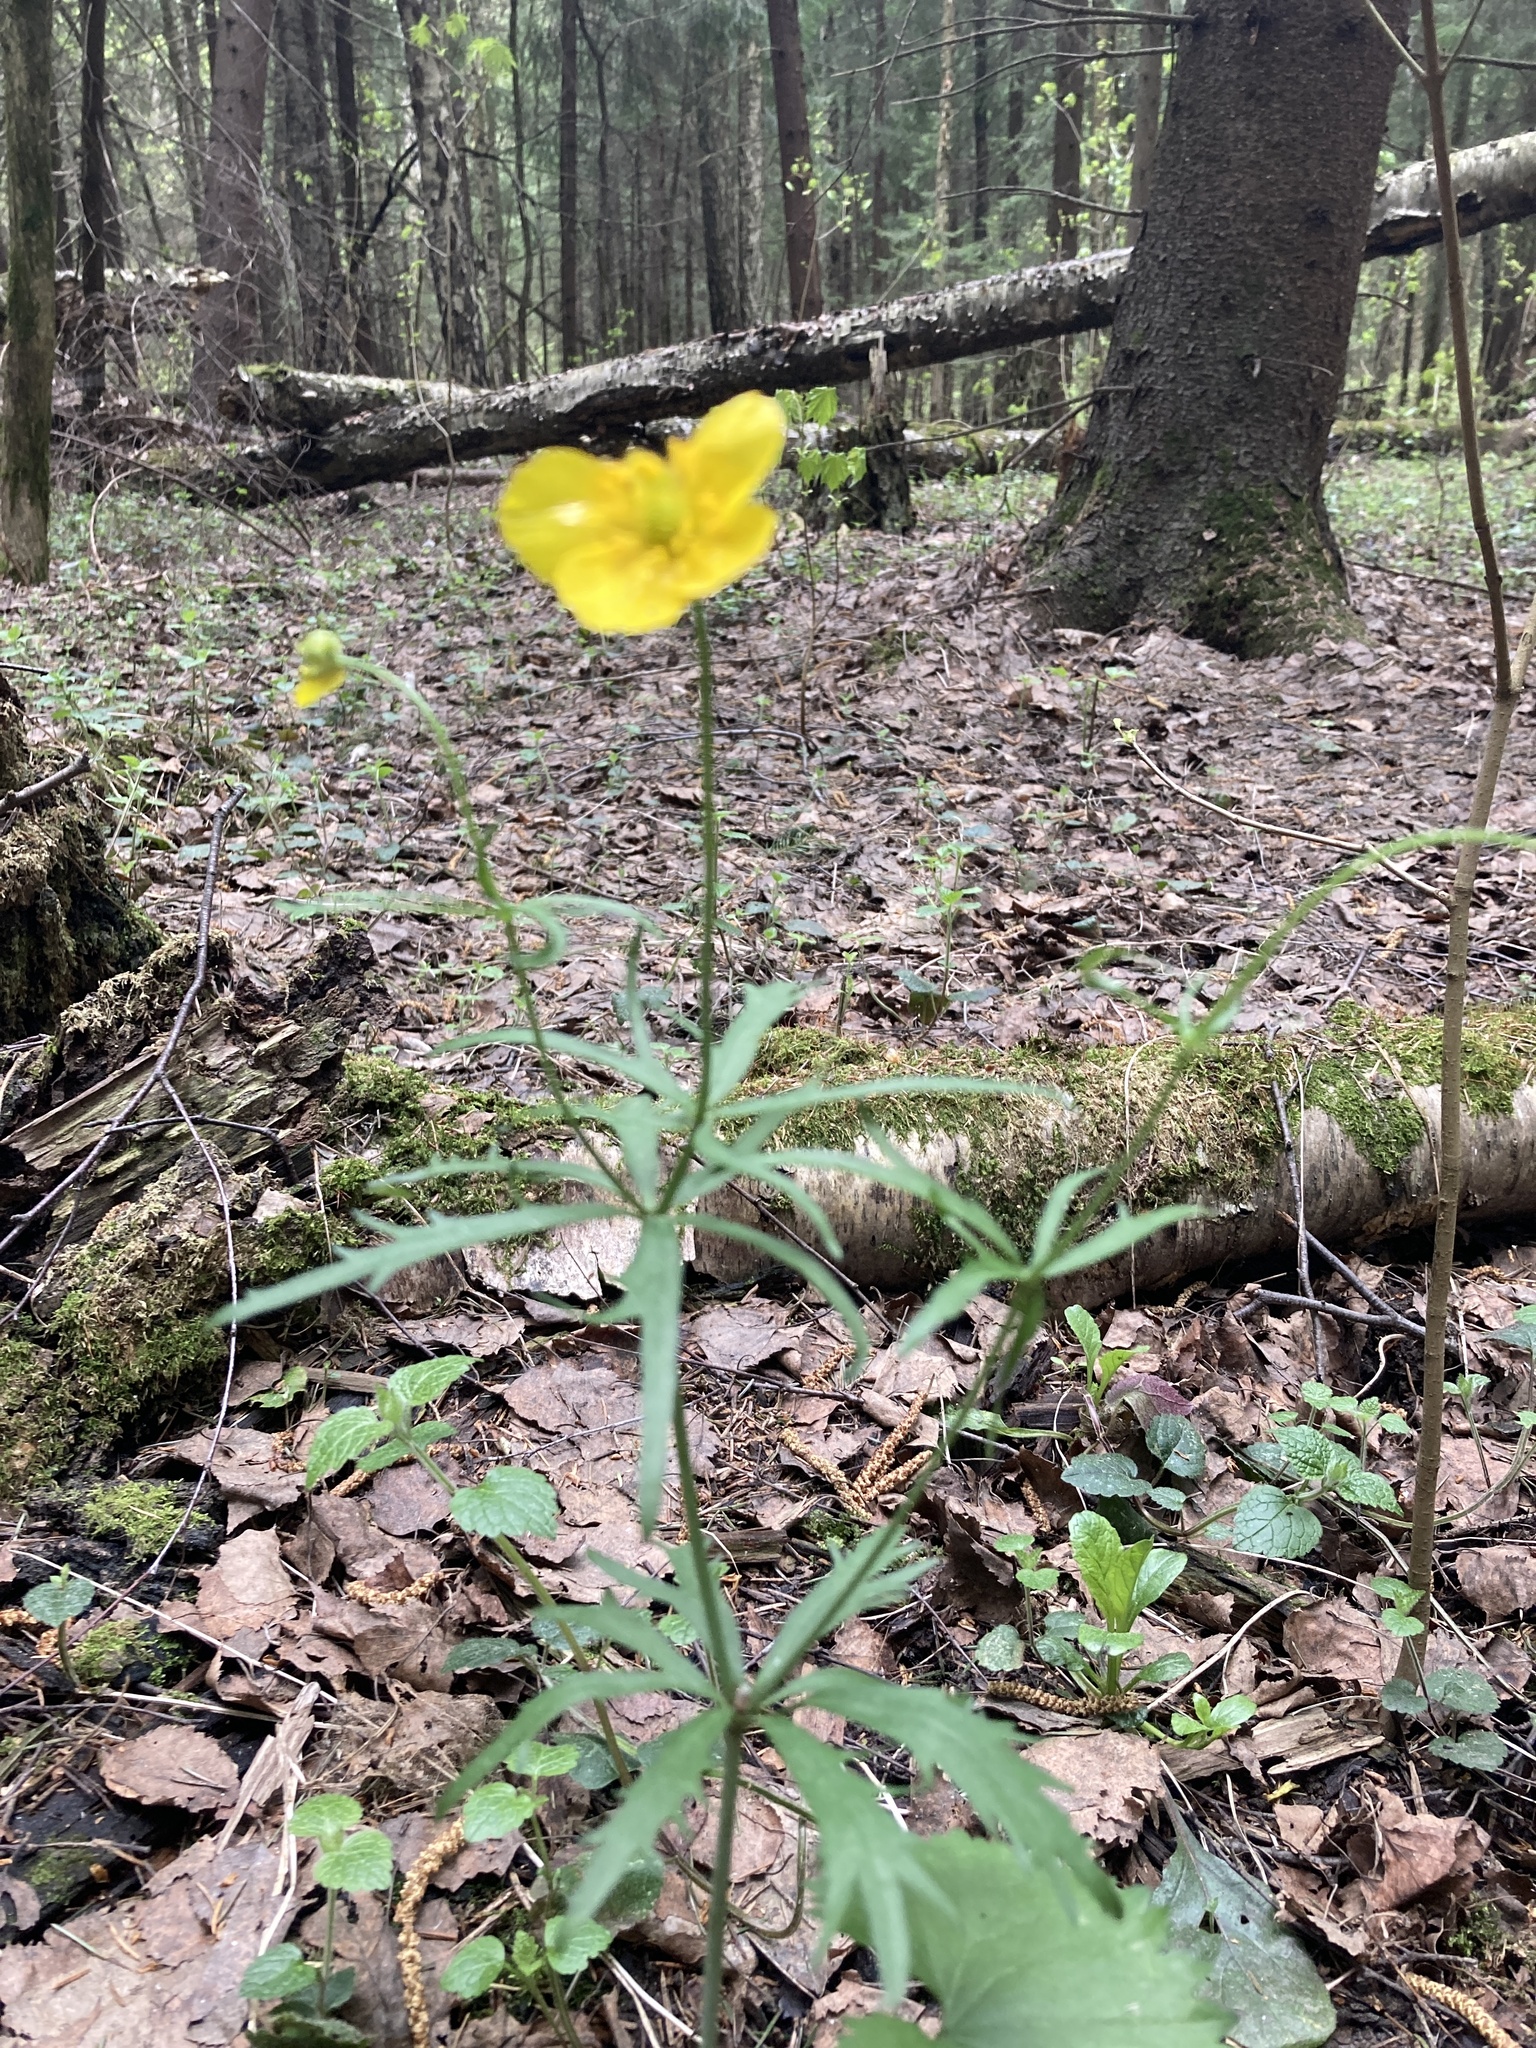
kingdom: Plantae
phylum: Tracheophyta
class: Magnoliopsida
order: Ranunculales
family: Ranunculaceae
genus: Ranunculus
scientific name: Ranunculus cassubicus
